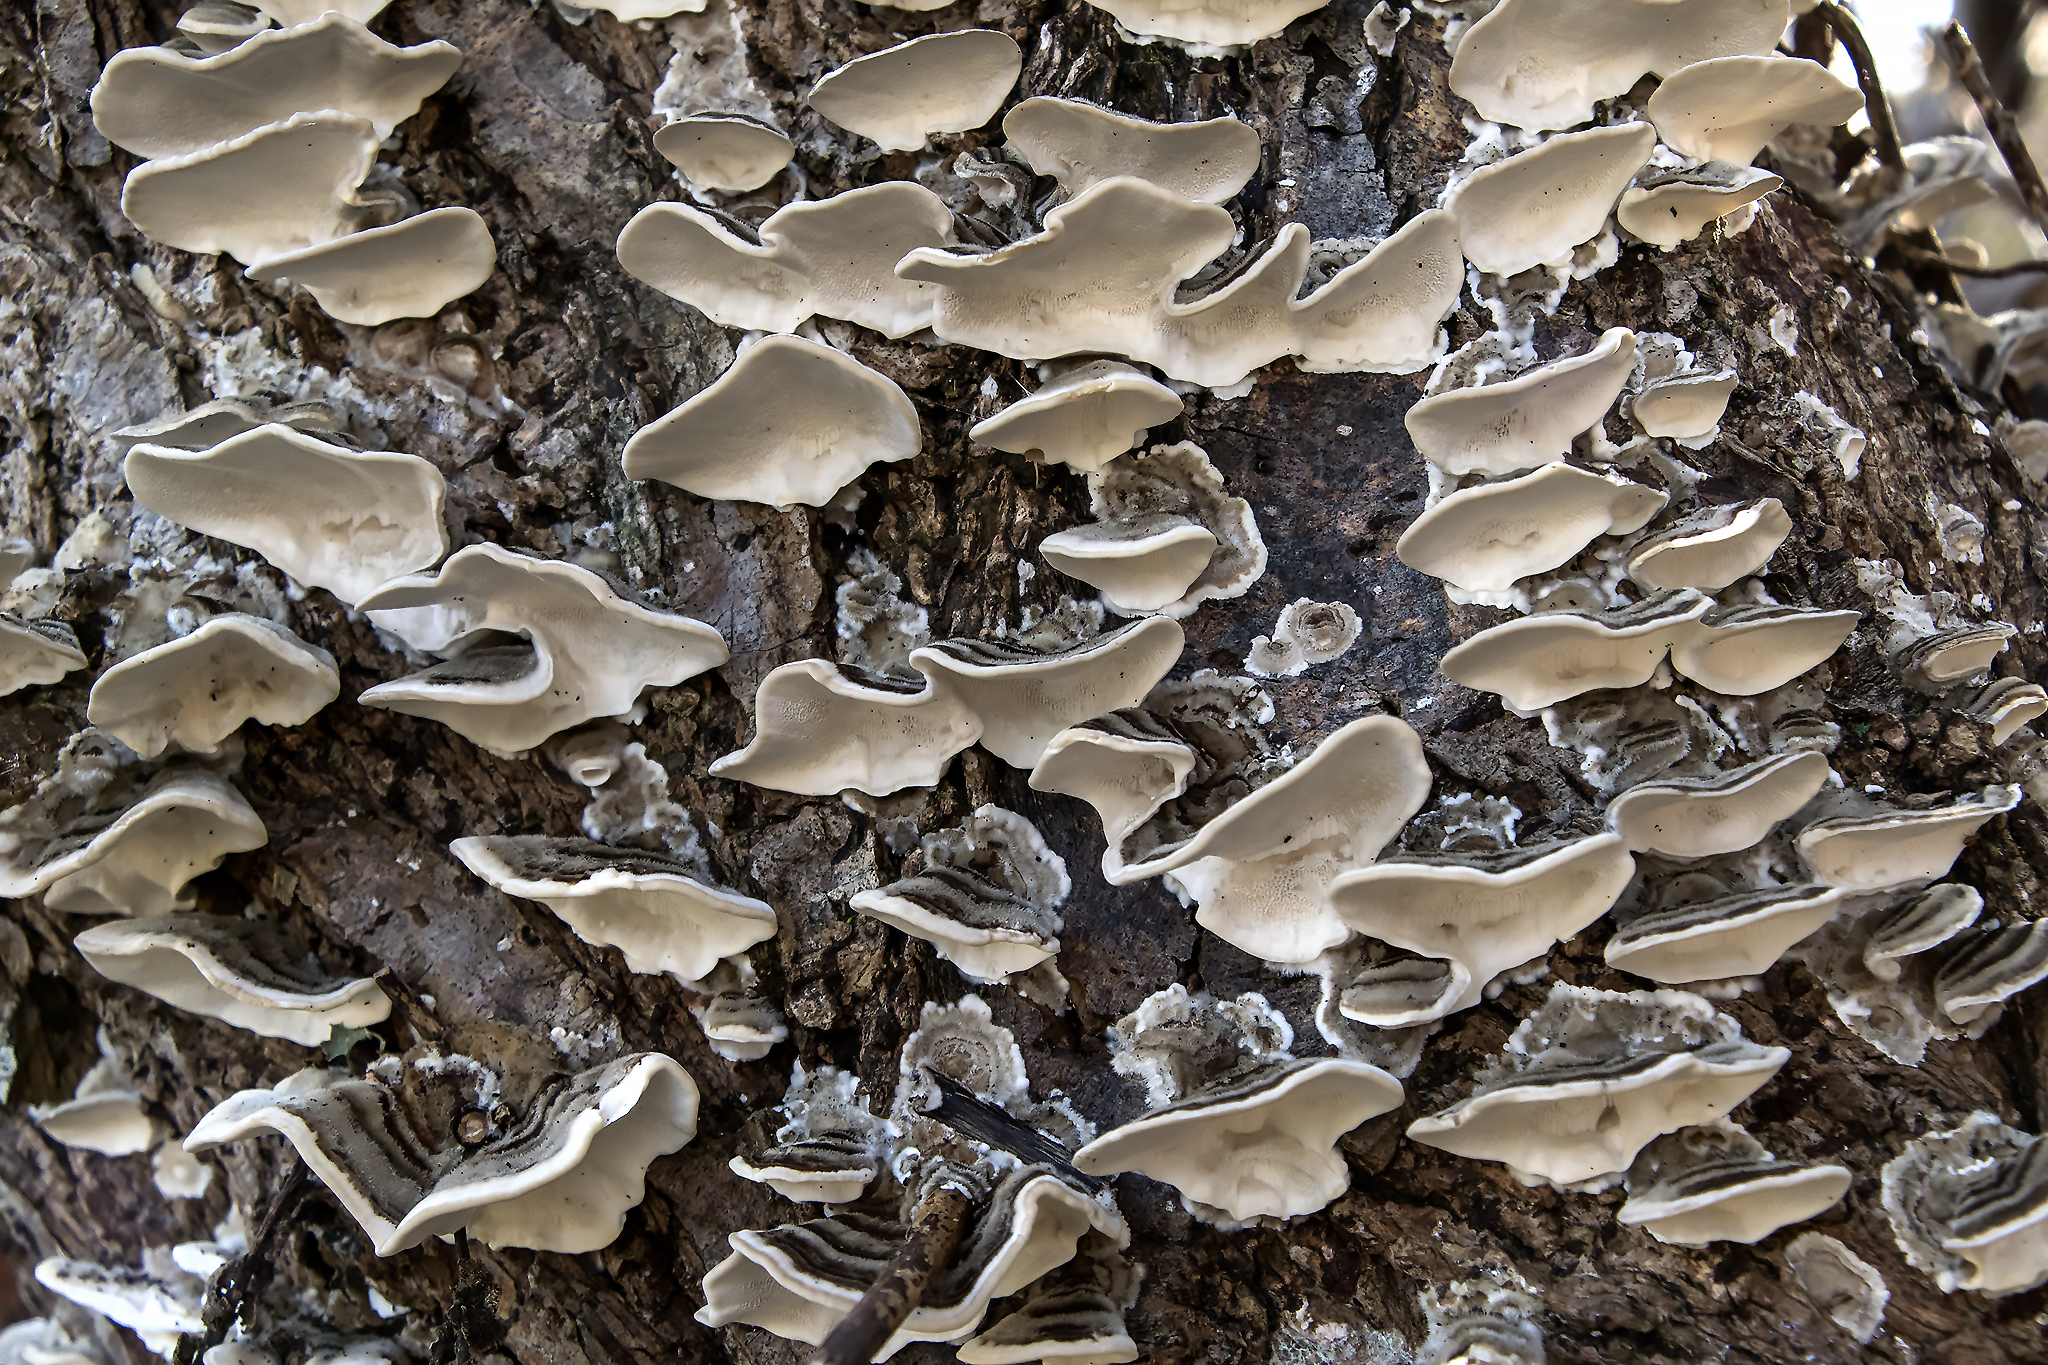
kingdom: Fungi
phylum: Basidiomycota
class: Agaricomycetes
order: Polyporales
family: Polyporaceae
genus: Trametes
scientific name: Trametes versicolor
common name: Turkeytail
